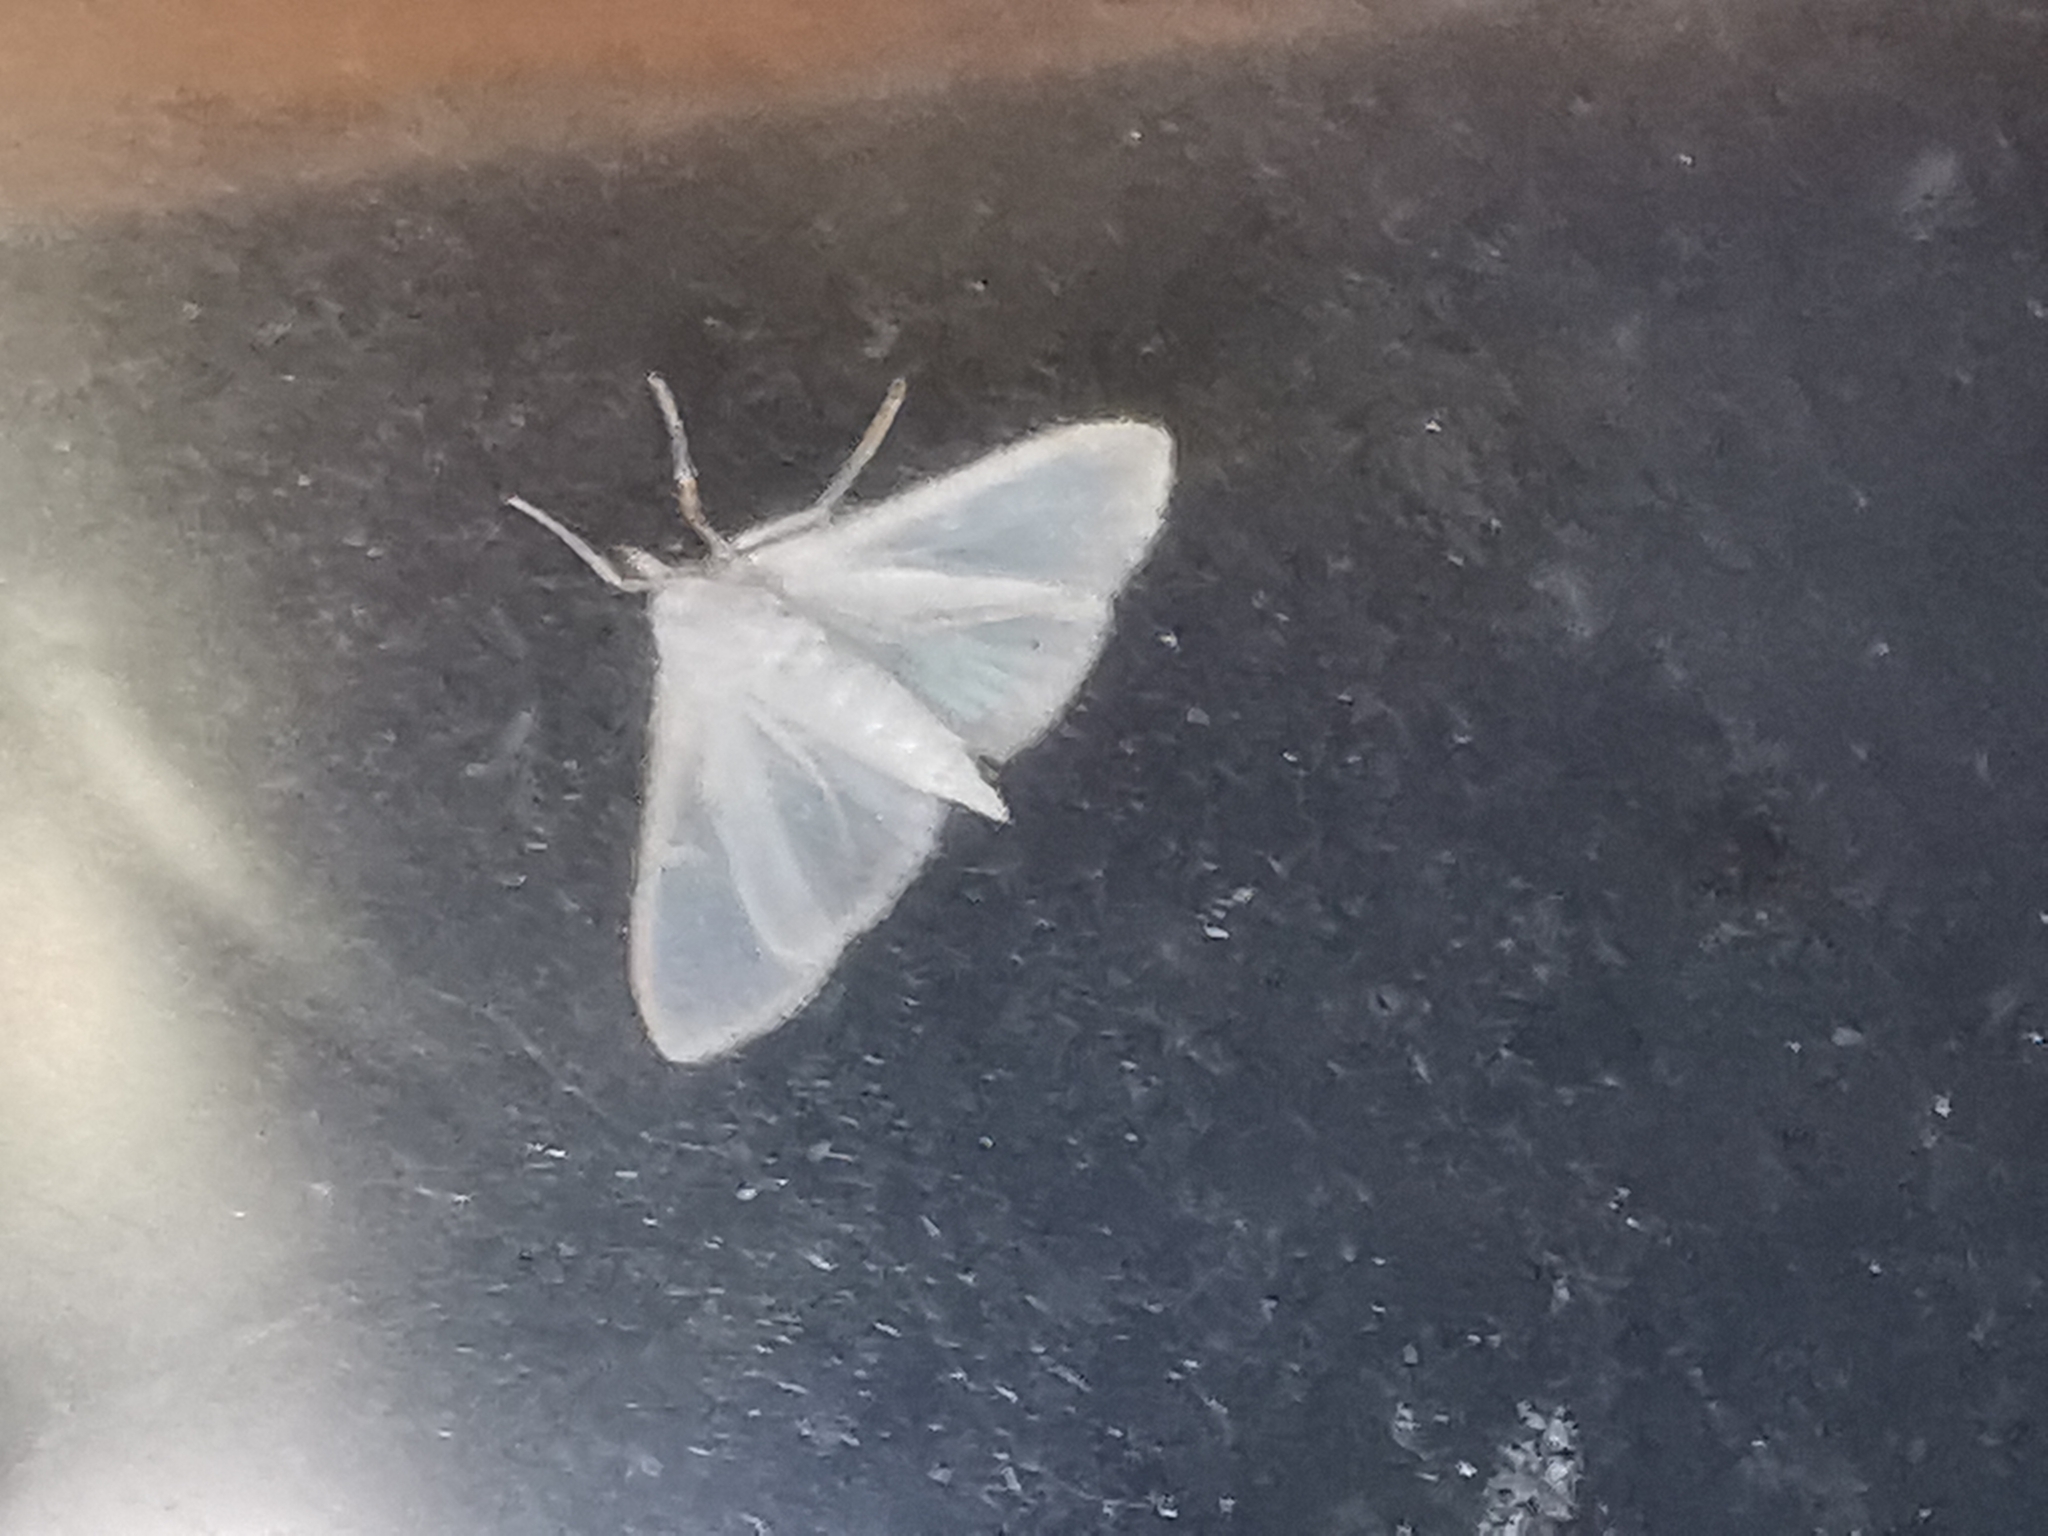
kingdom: Animalia
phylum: Arthropoda
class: Insecta
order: Lepidoptera
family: Crambidae
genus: Palpita
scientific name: Palpita vitrealis
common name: Olive-tree pearl
